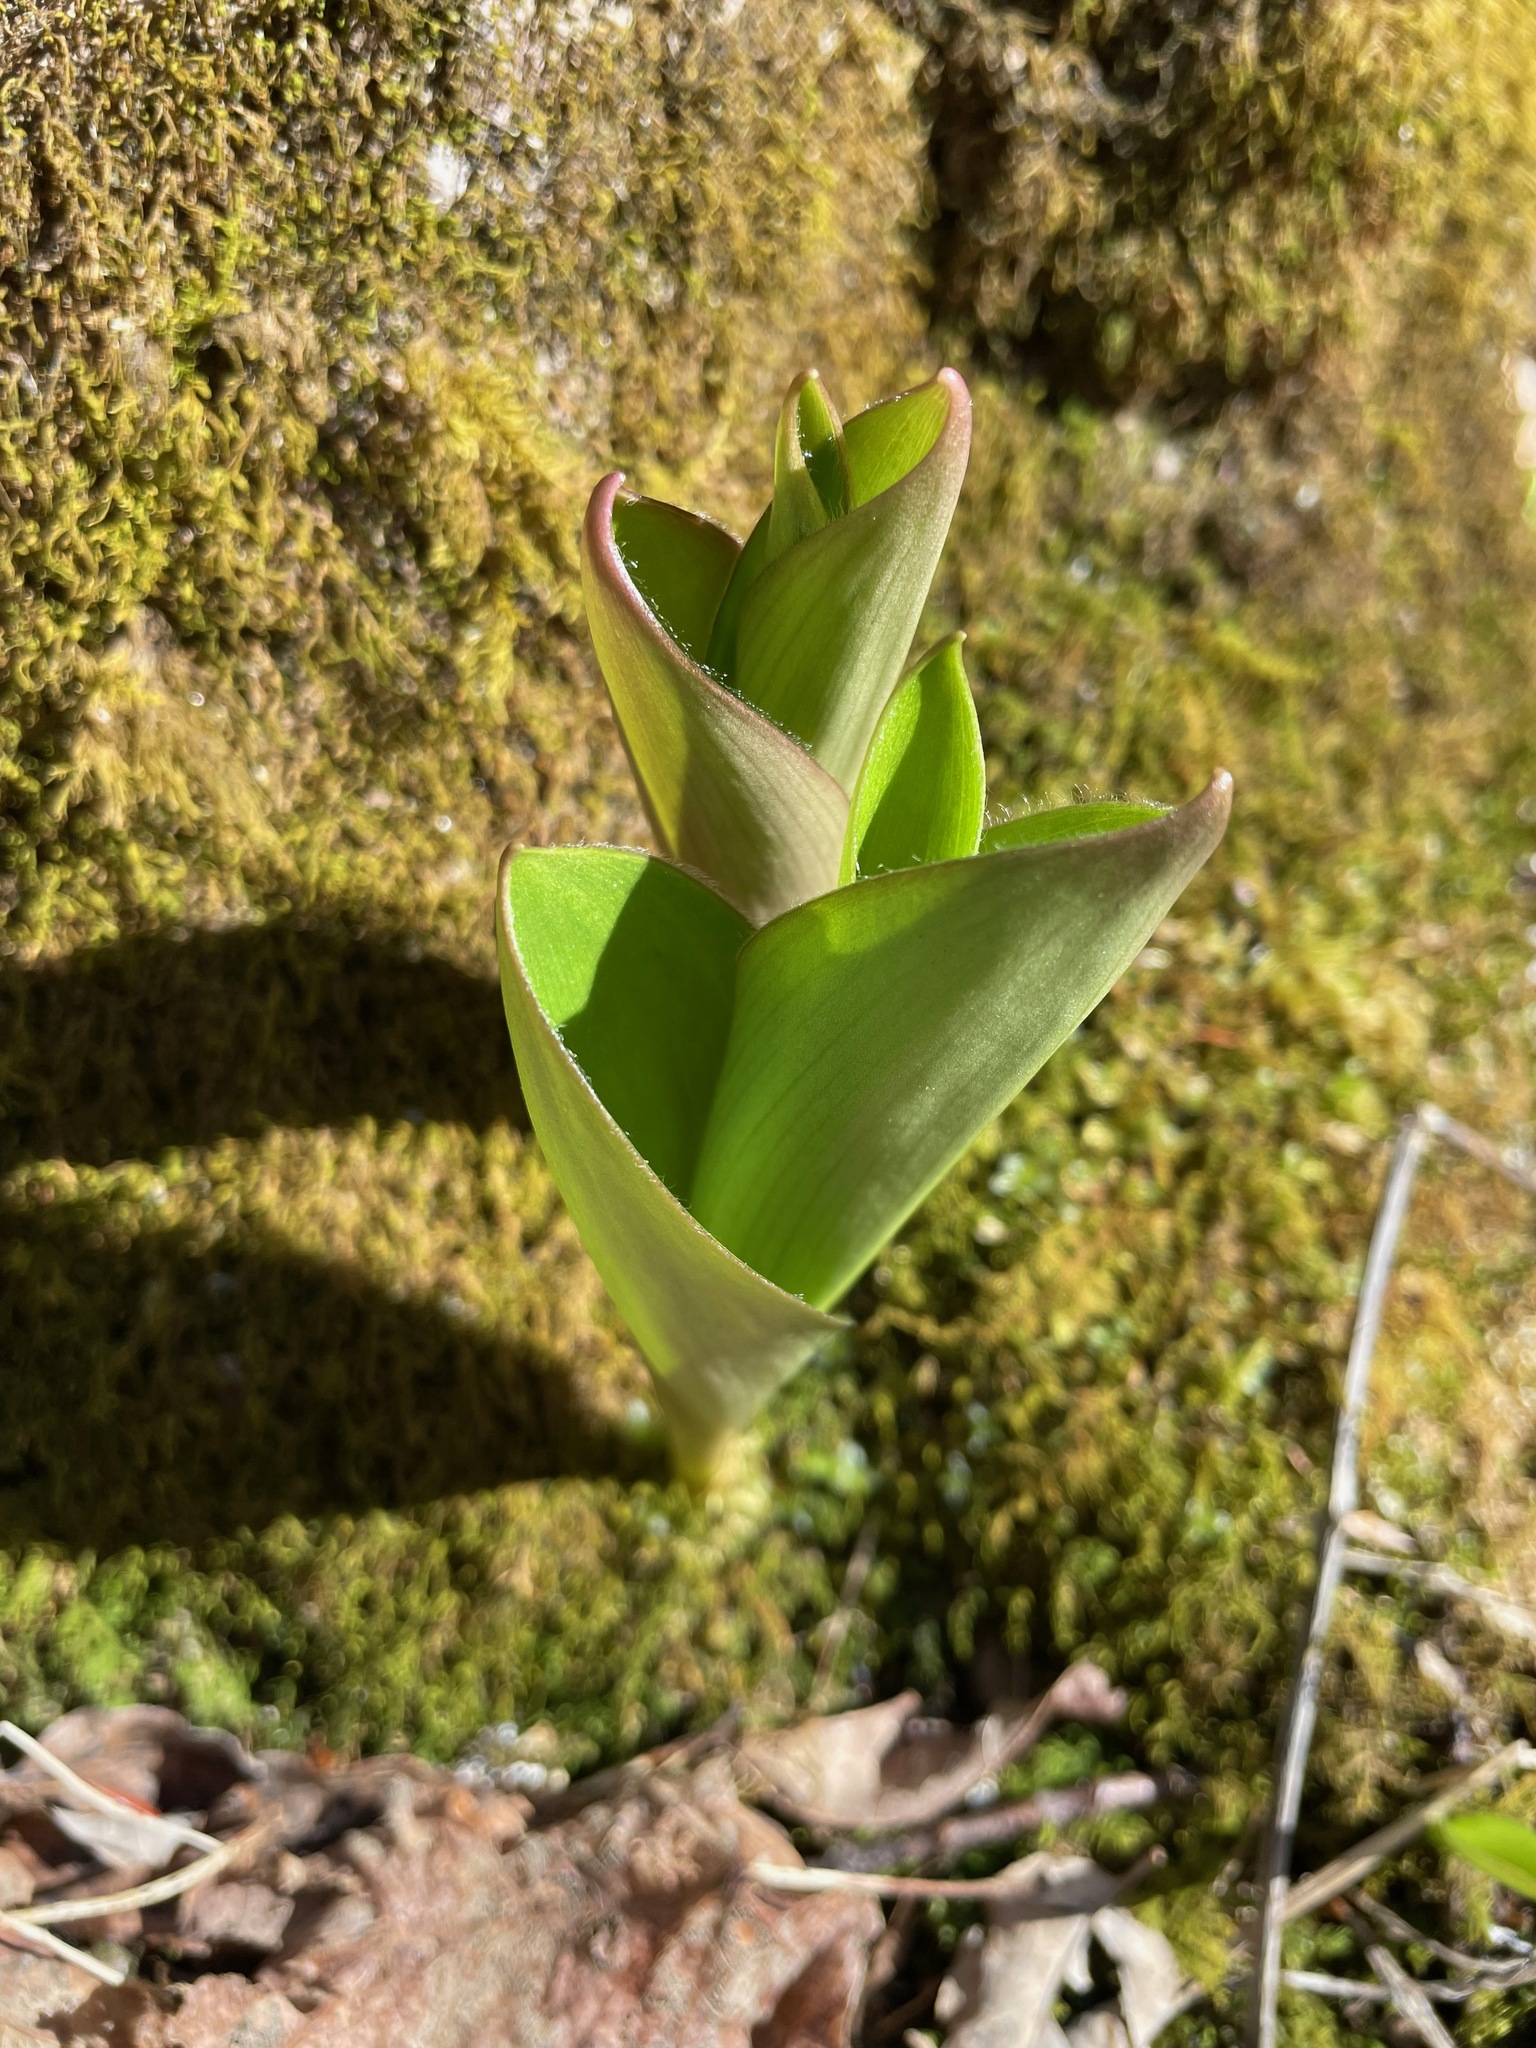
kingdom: Plantae
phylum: Tracheophyta
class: Liliopsida
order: Liliales
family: Liliaceae
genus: Clintonia
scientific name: Clintonia borealis
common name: Yellow clintonia
